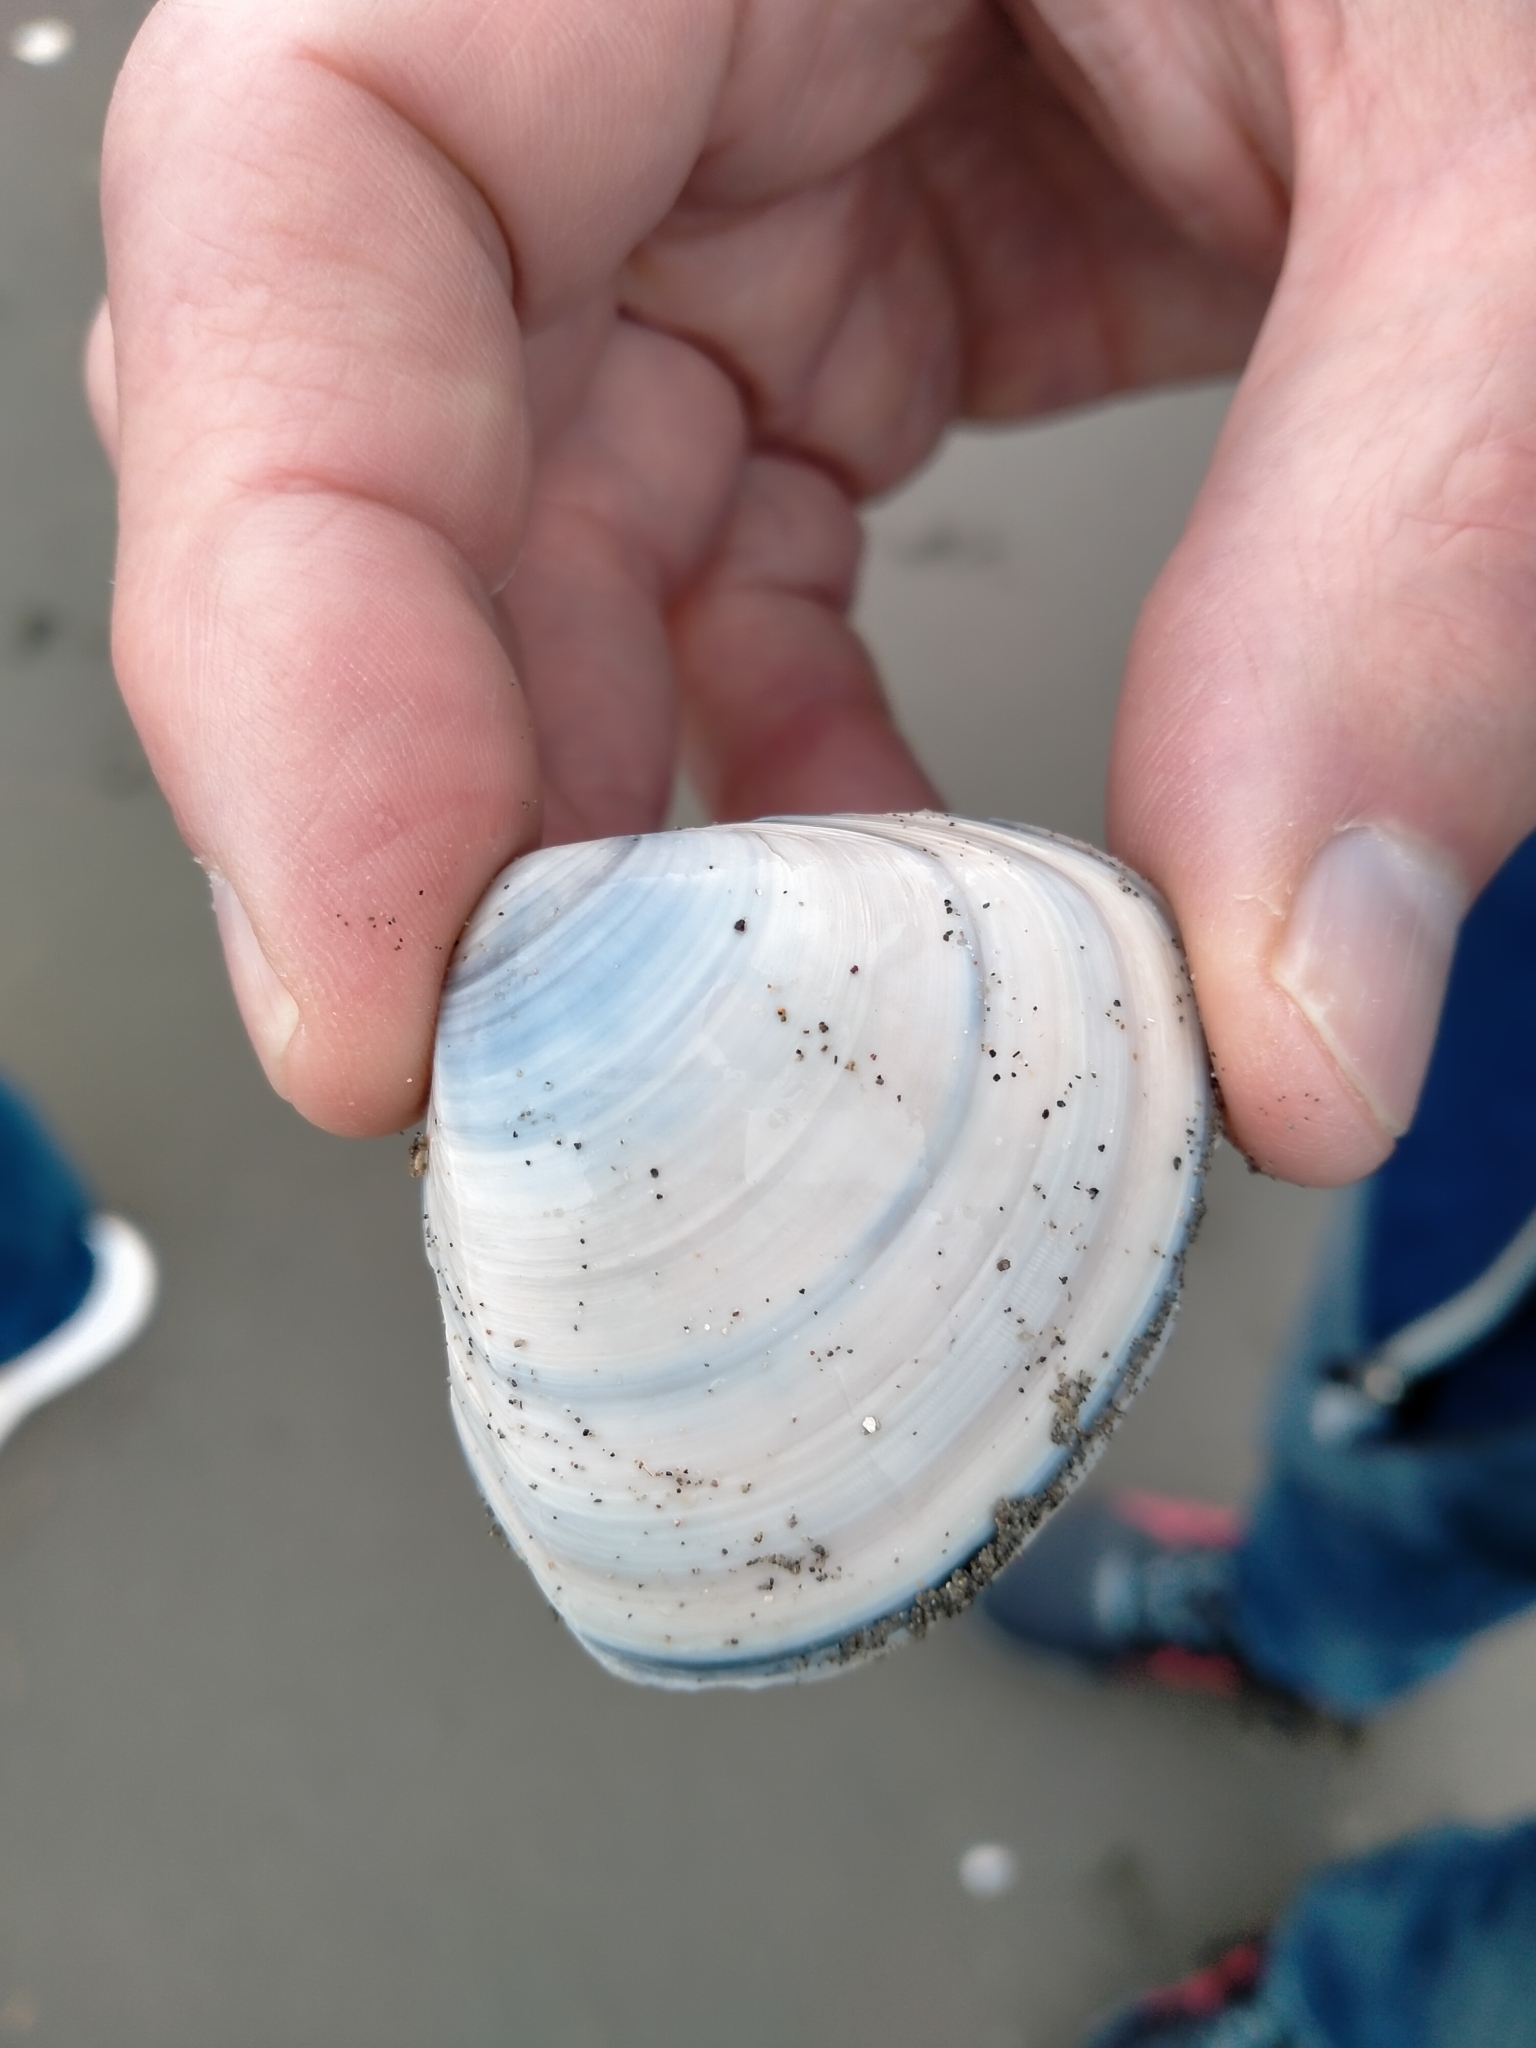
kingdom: Animalia
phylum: Mollusca
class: Bivalvia
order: Venerida
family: Mactridae
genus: Spisula
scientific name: Spisula discors
